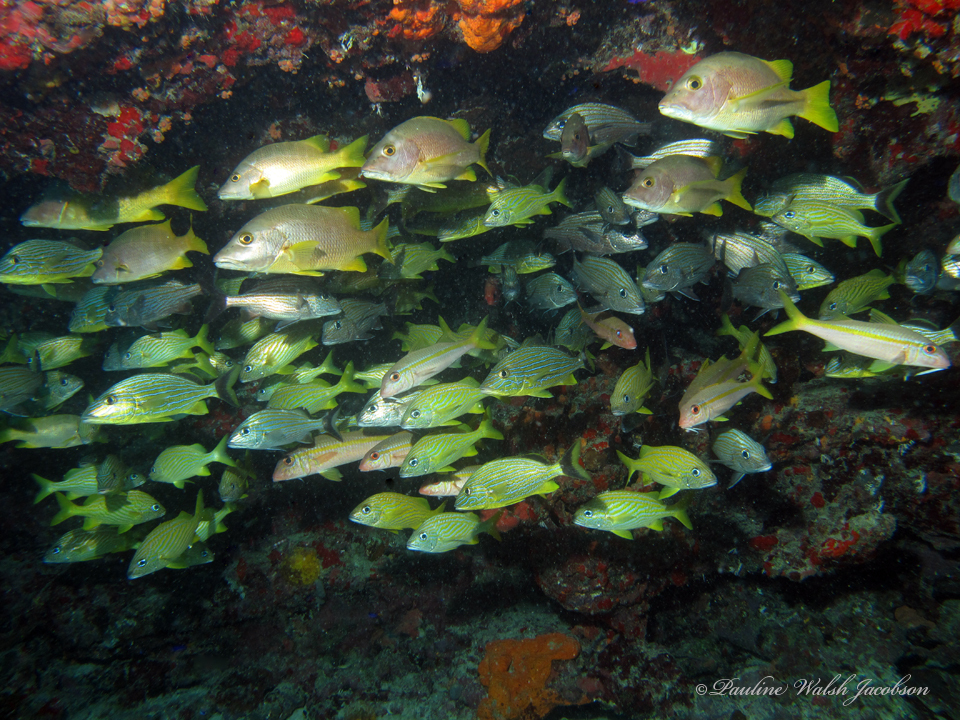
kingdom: Animalia
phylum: Chordata
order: Perciformes
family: Mullidae
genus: Mulloidichthys
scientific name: Mulloidichthys martinicus
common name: Yellow goatfish
